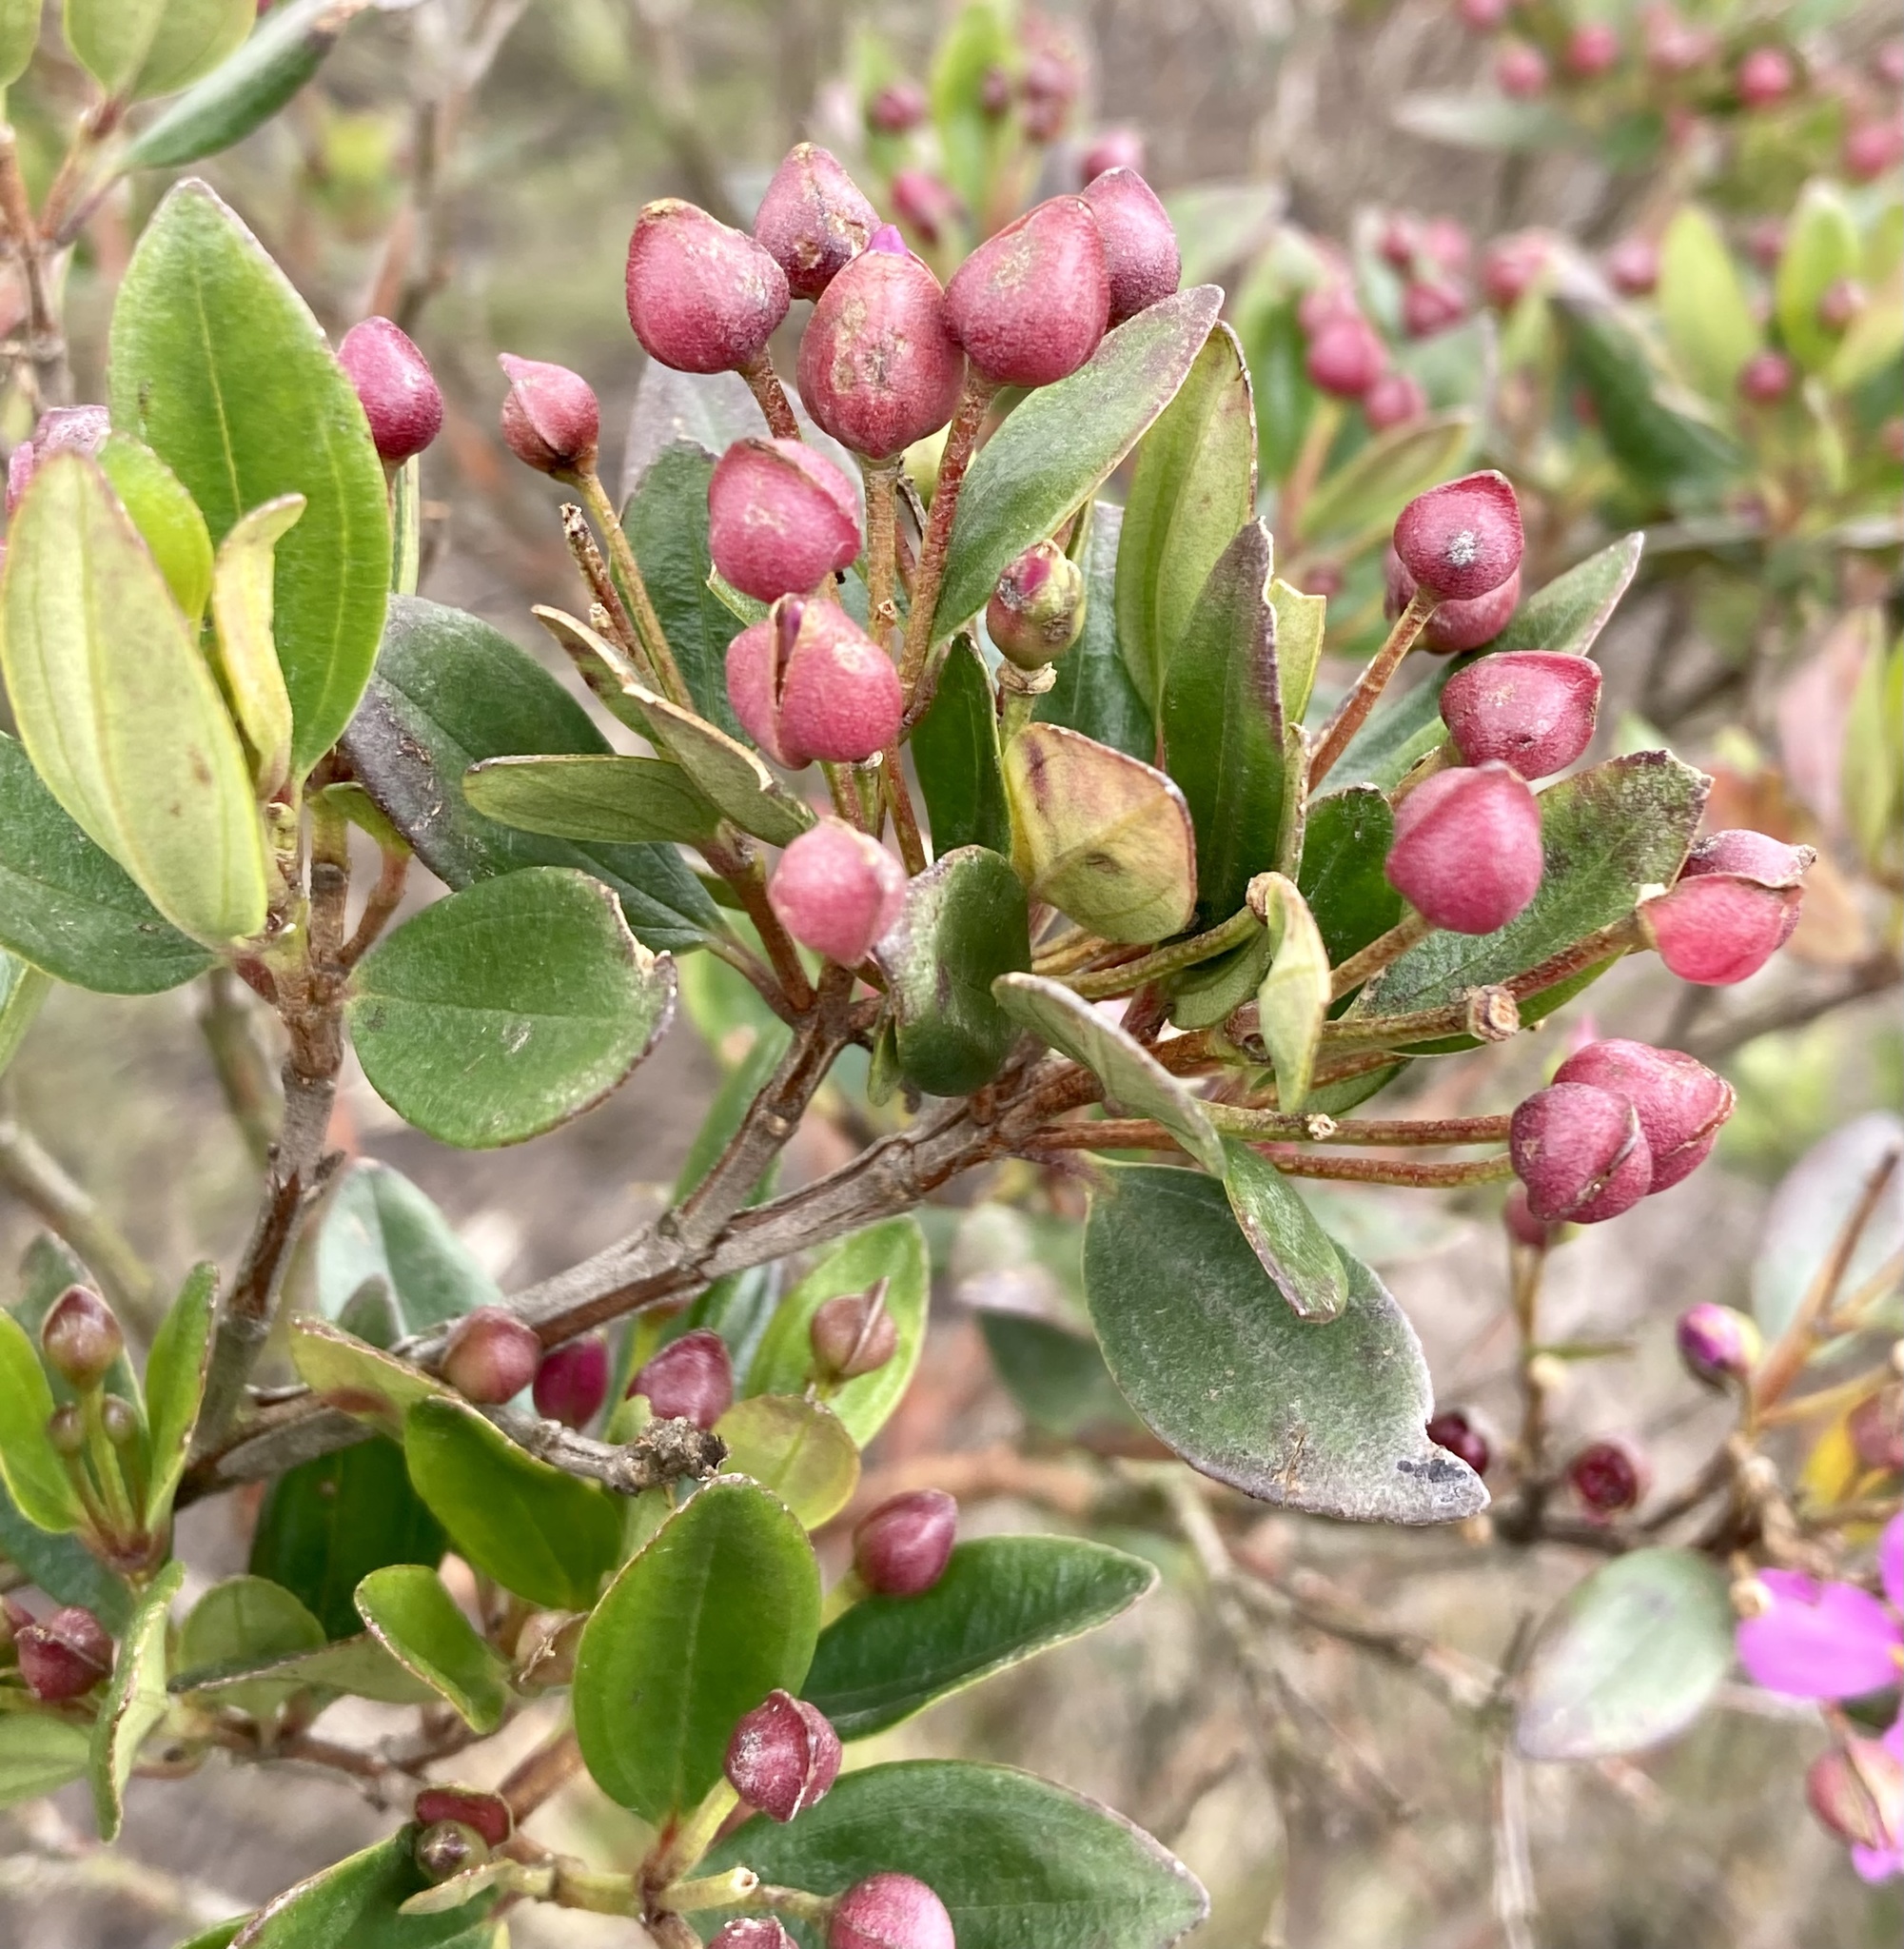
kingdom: Plantae
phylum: Tracheophyta
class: Magnoliopsida
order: Myrtales
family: Melastomataceae
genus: Bucquetia
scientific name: Bucquetia glutinosa
